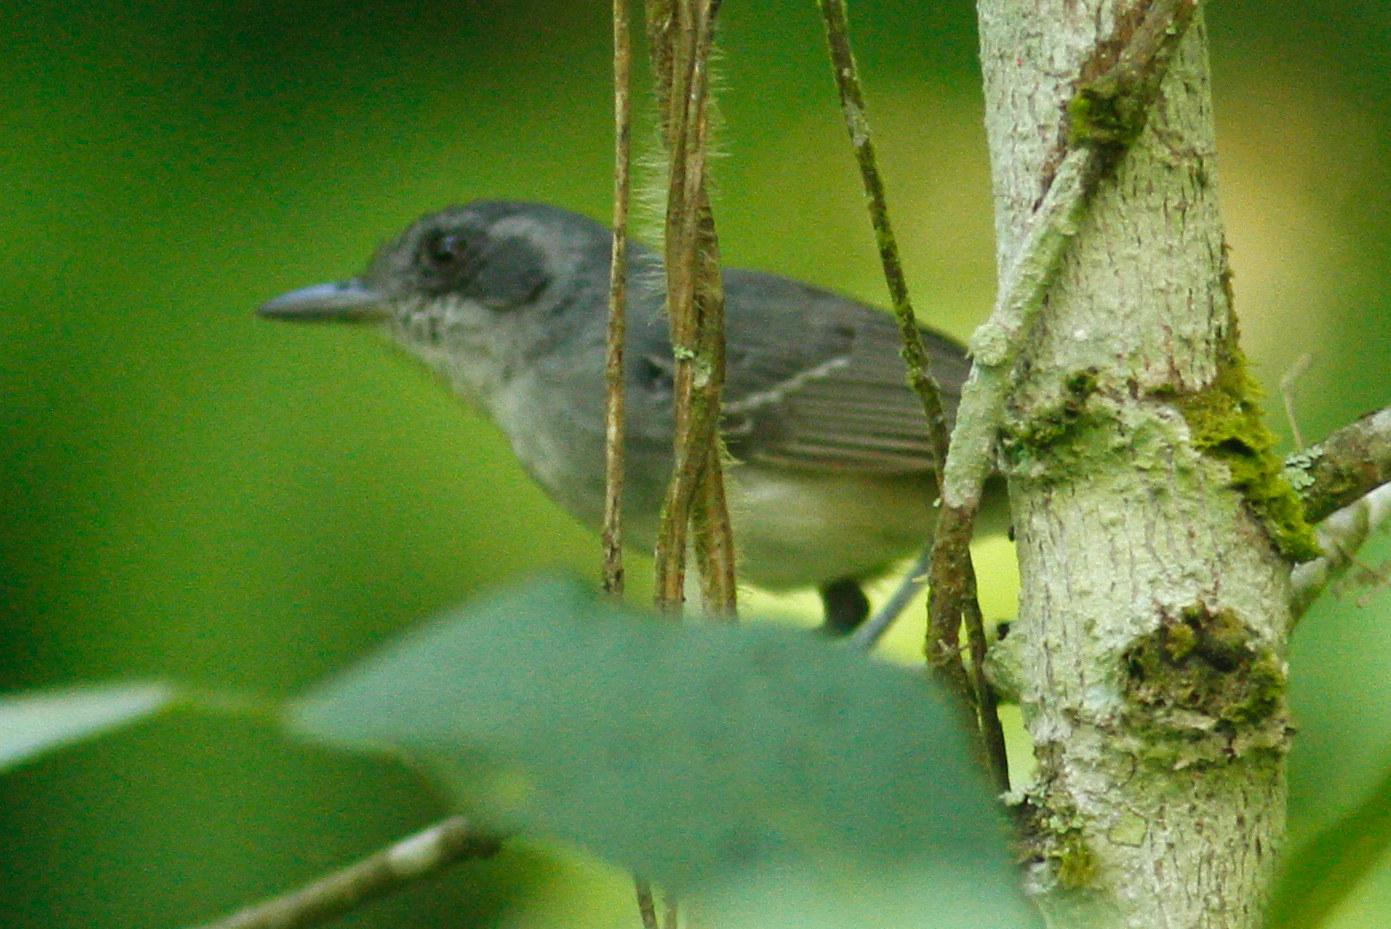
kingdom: Animalia
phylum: Chordata
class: Aves
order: Passeriformes
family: Thamnophilidae
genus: Dysithamnus
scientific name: Dysithamnus mentalis
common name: Plain antvireo
